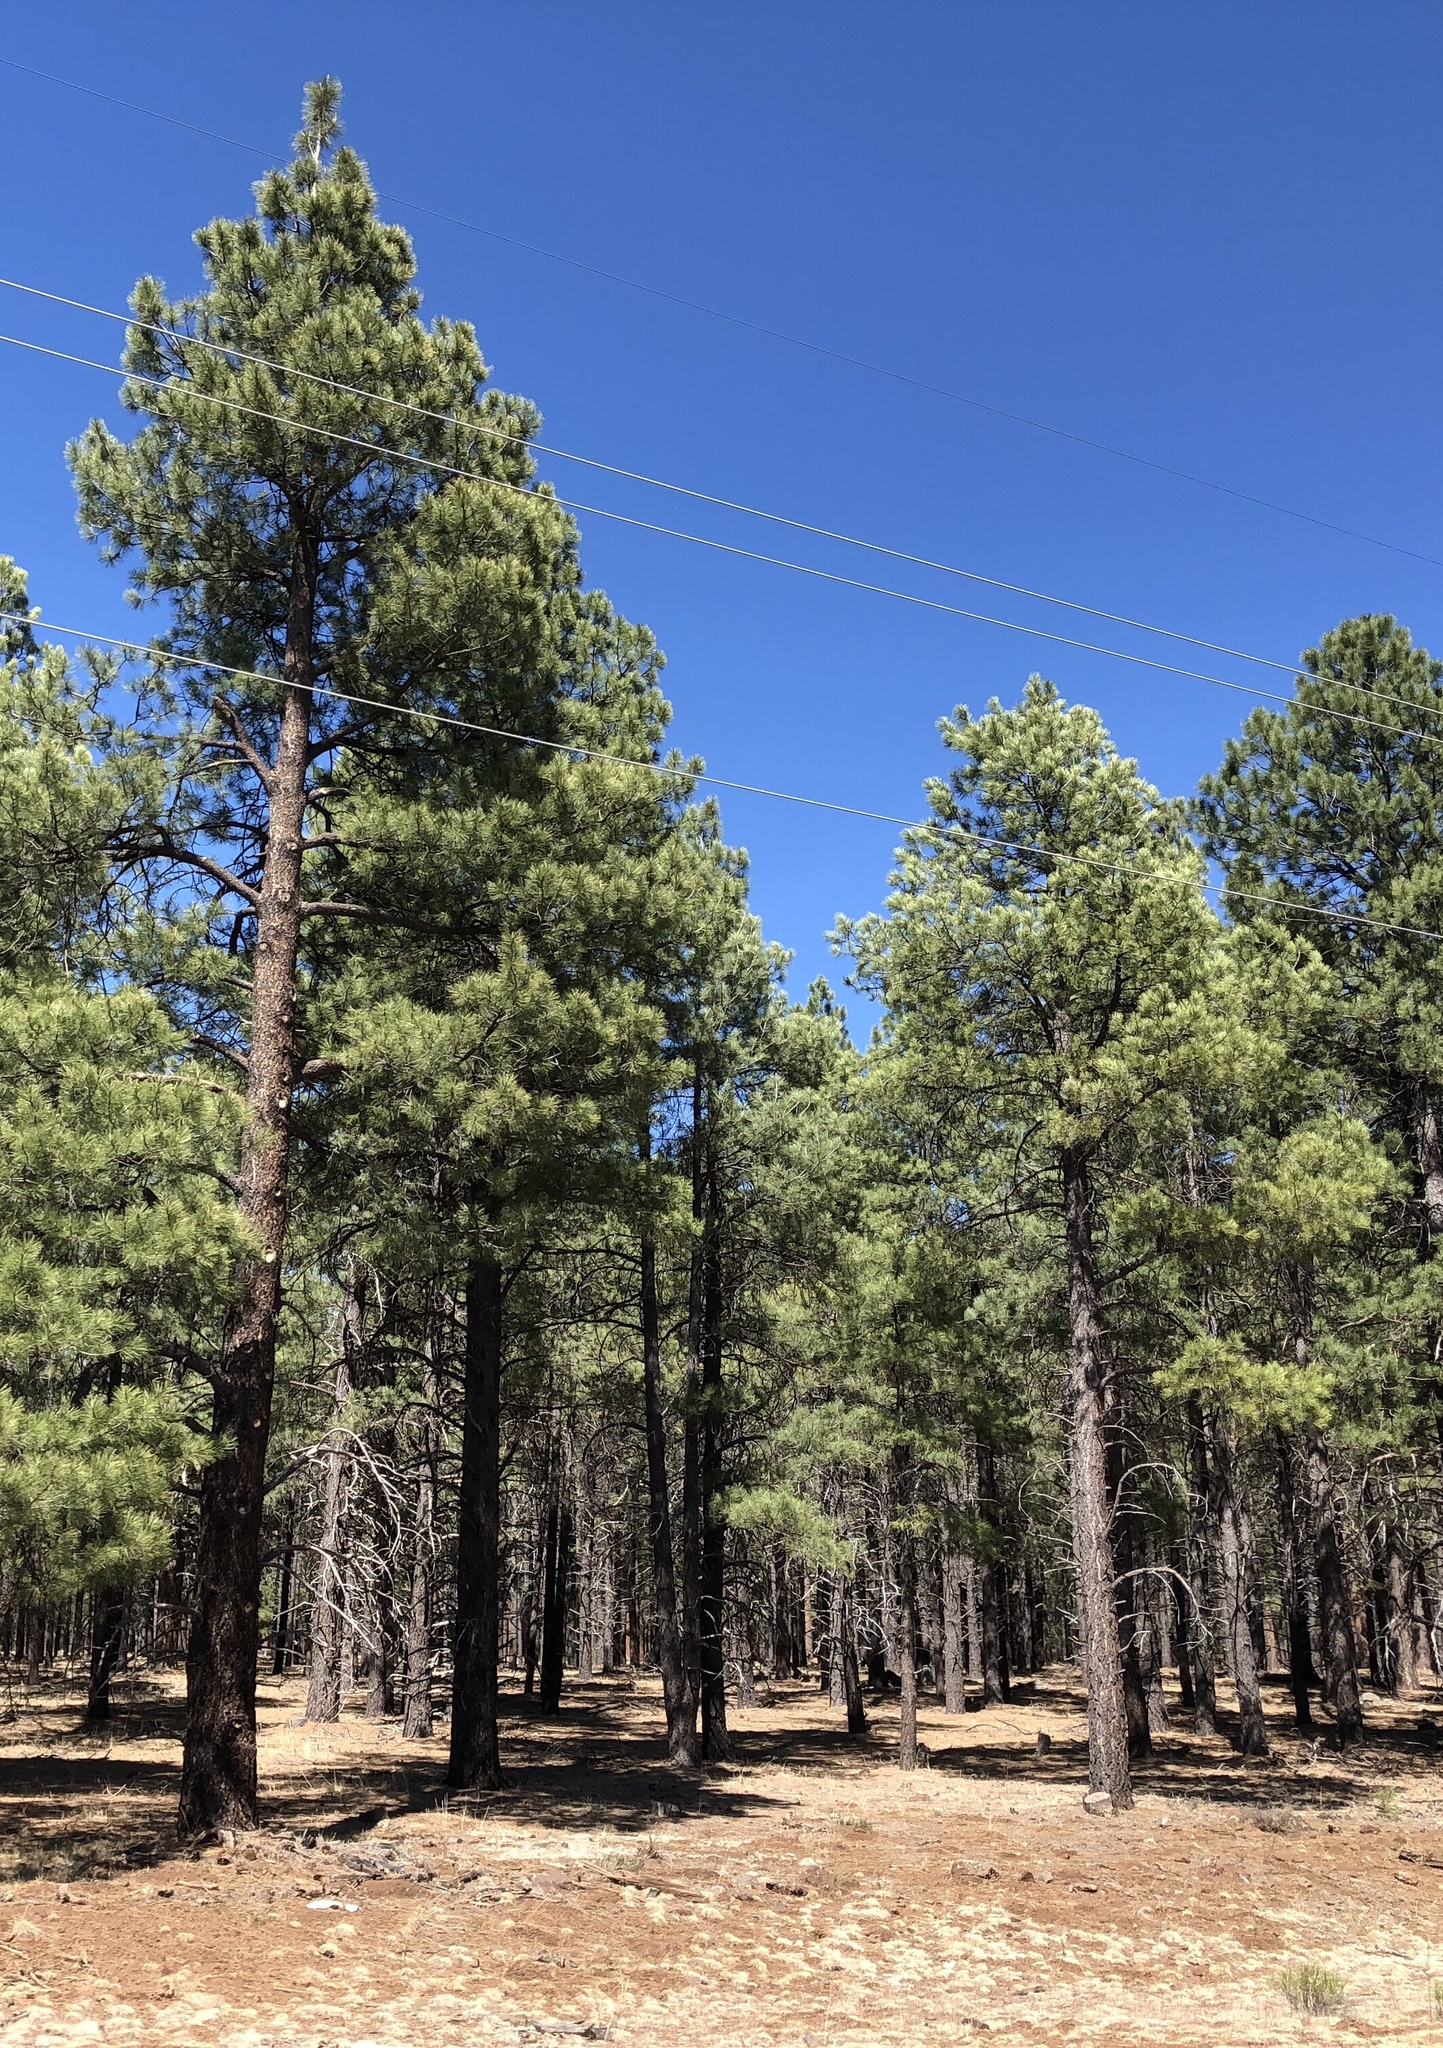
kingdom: Plantae
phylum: Tracheophyta
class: Pinopsida
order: Pinales
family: Pinaceae
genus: Pinus
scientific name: Pinus ponderosa
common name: Western yellow-pine
